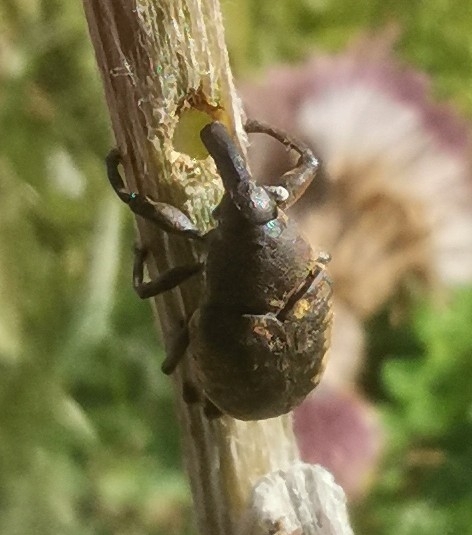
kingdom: Animalia
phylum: Arthropoda
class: Insecta
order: Coleoptera
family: Curculionidae
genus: Larinus
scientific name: Larinus sturnus
